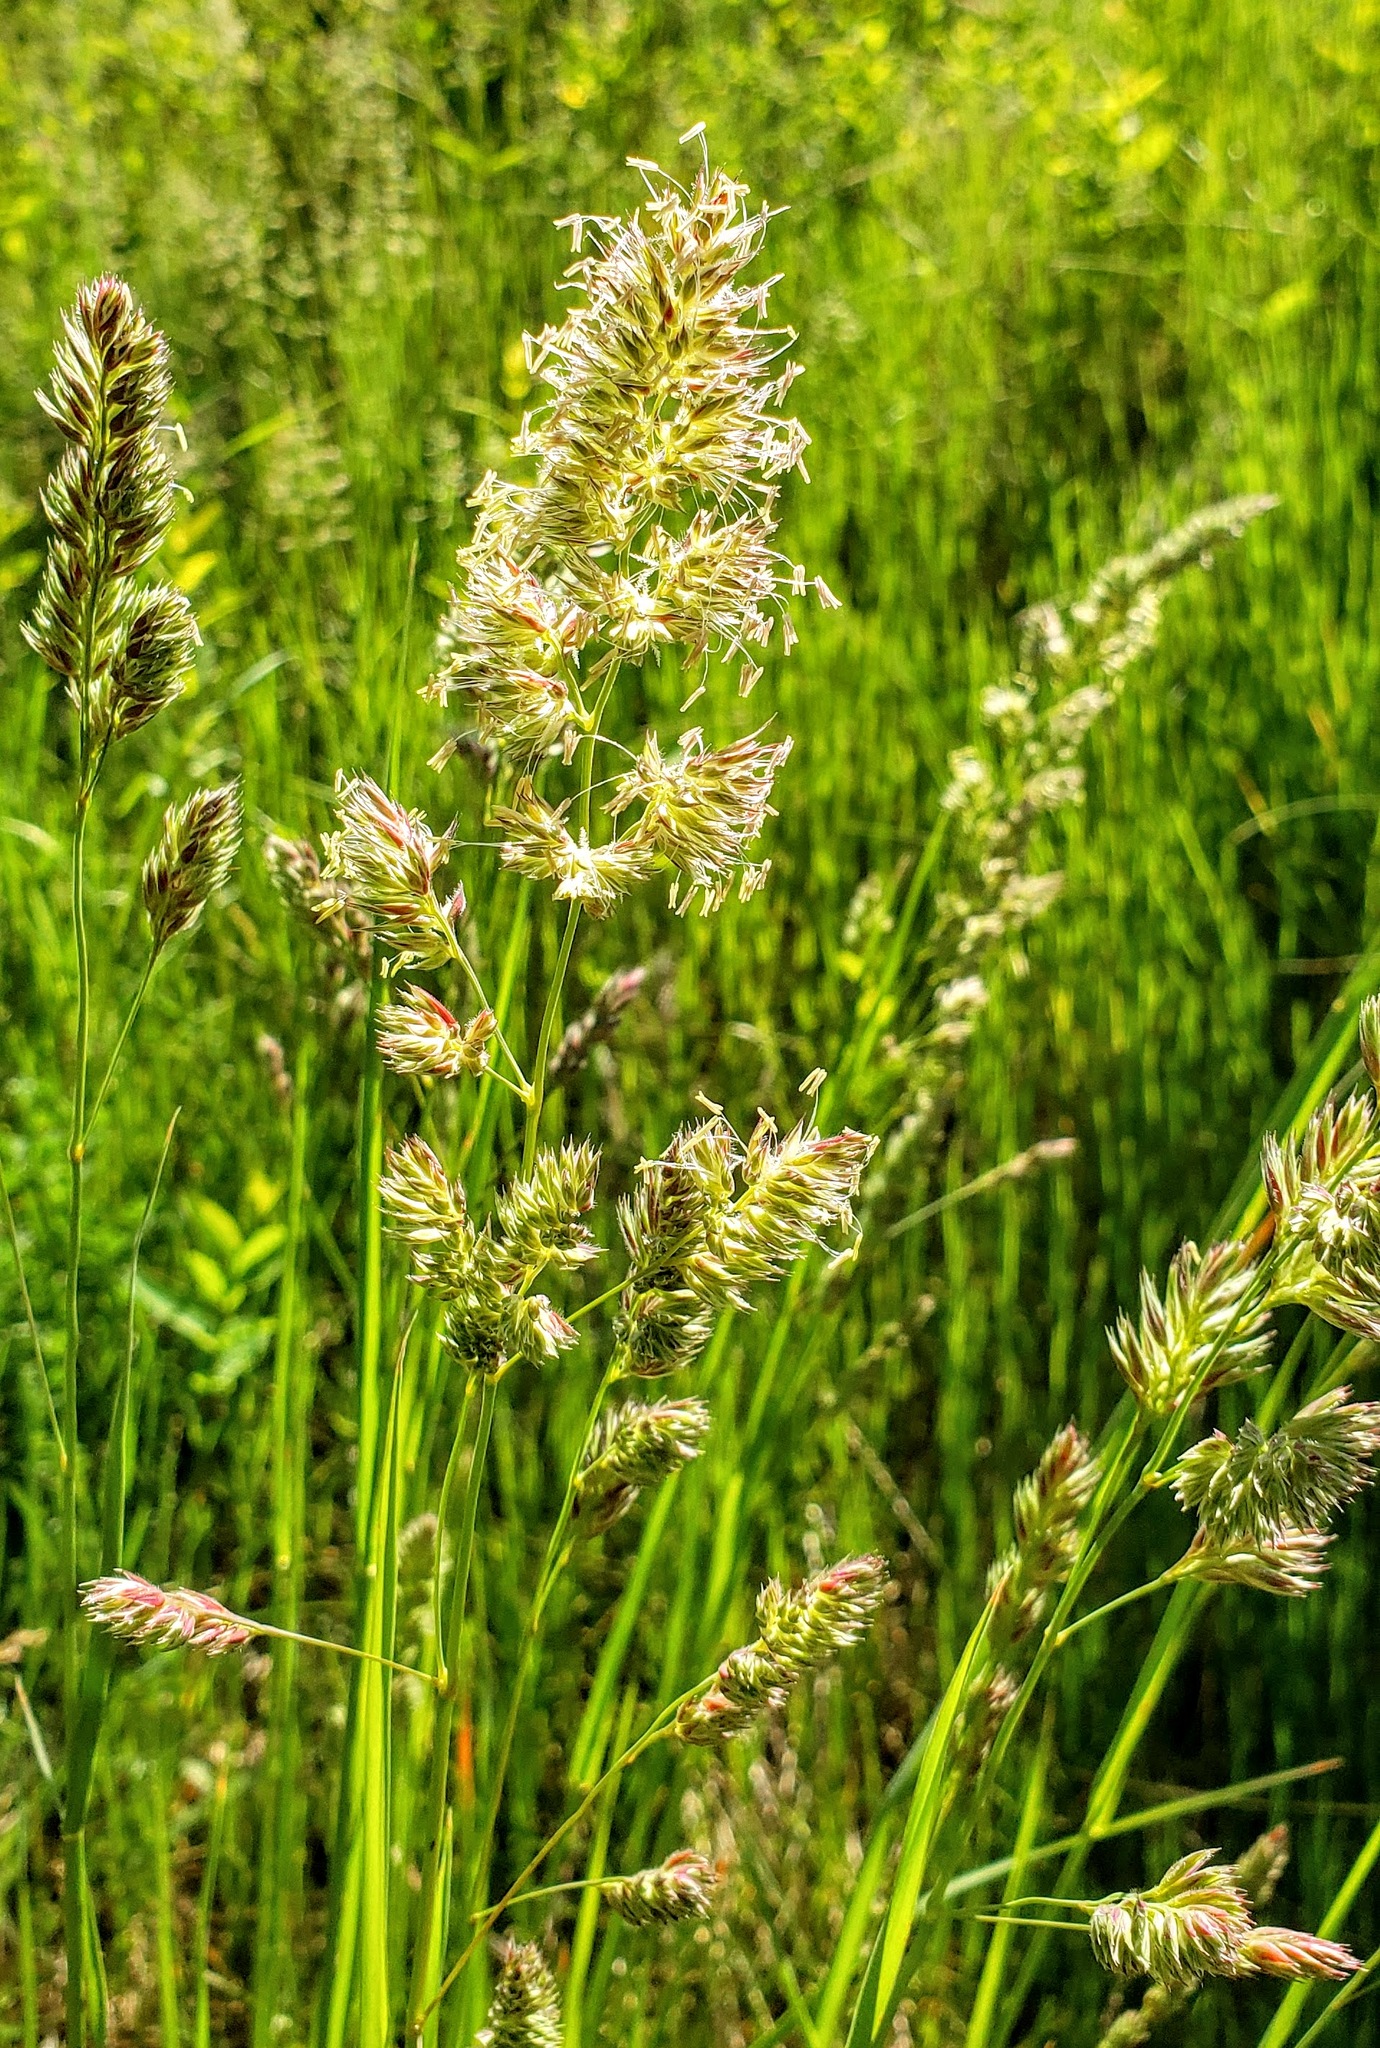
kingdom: Plantae
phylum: Tracheophyta
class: Liliopsida
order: Poales
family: Poaceae
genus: Dactylis
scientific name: Dactylis glomerata
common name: Orchardgrass
